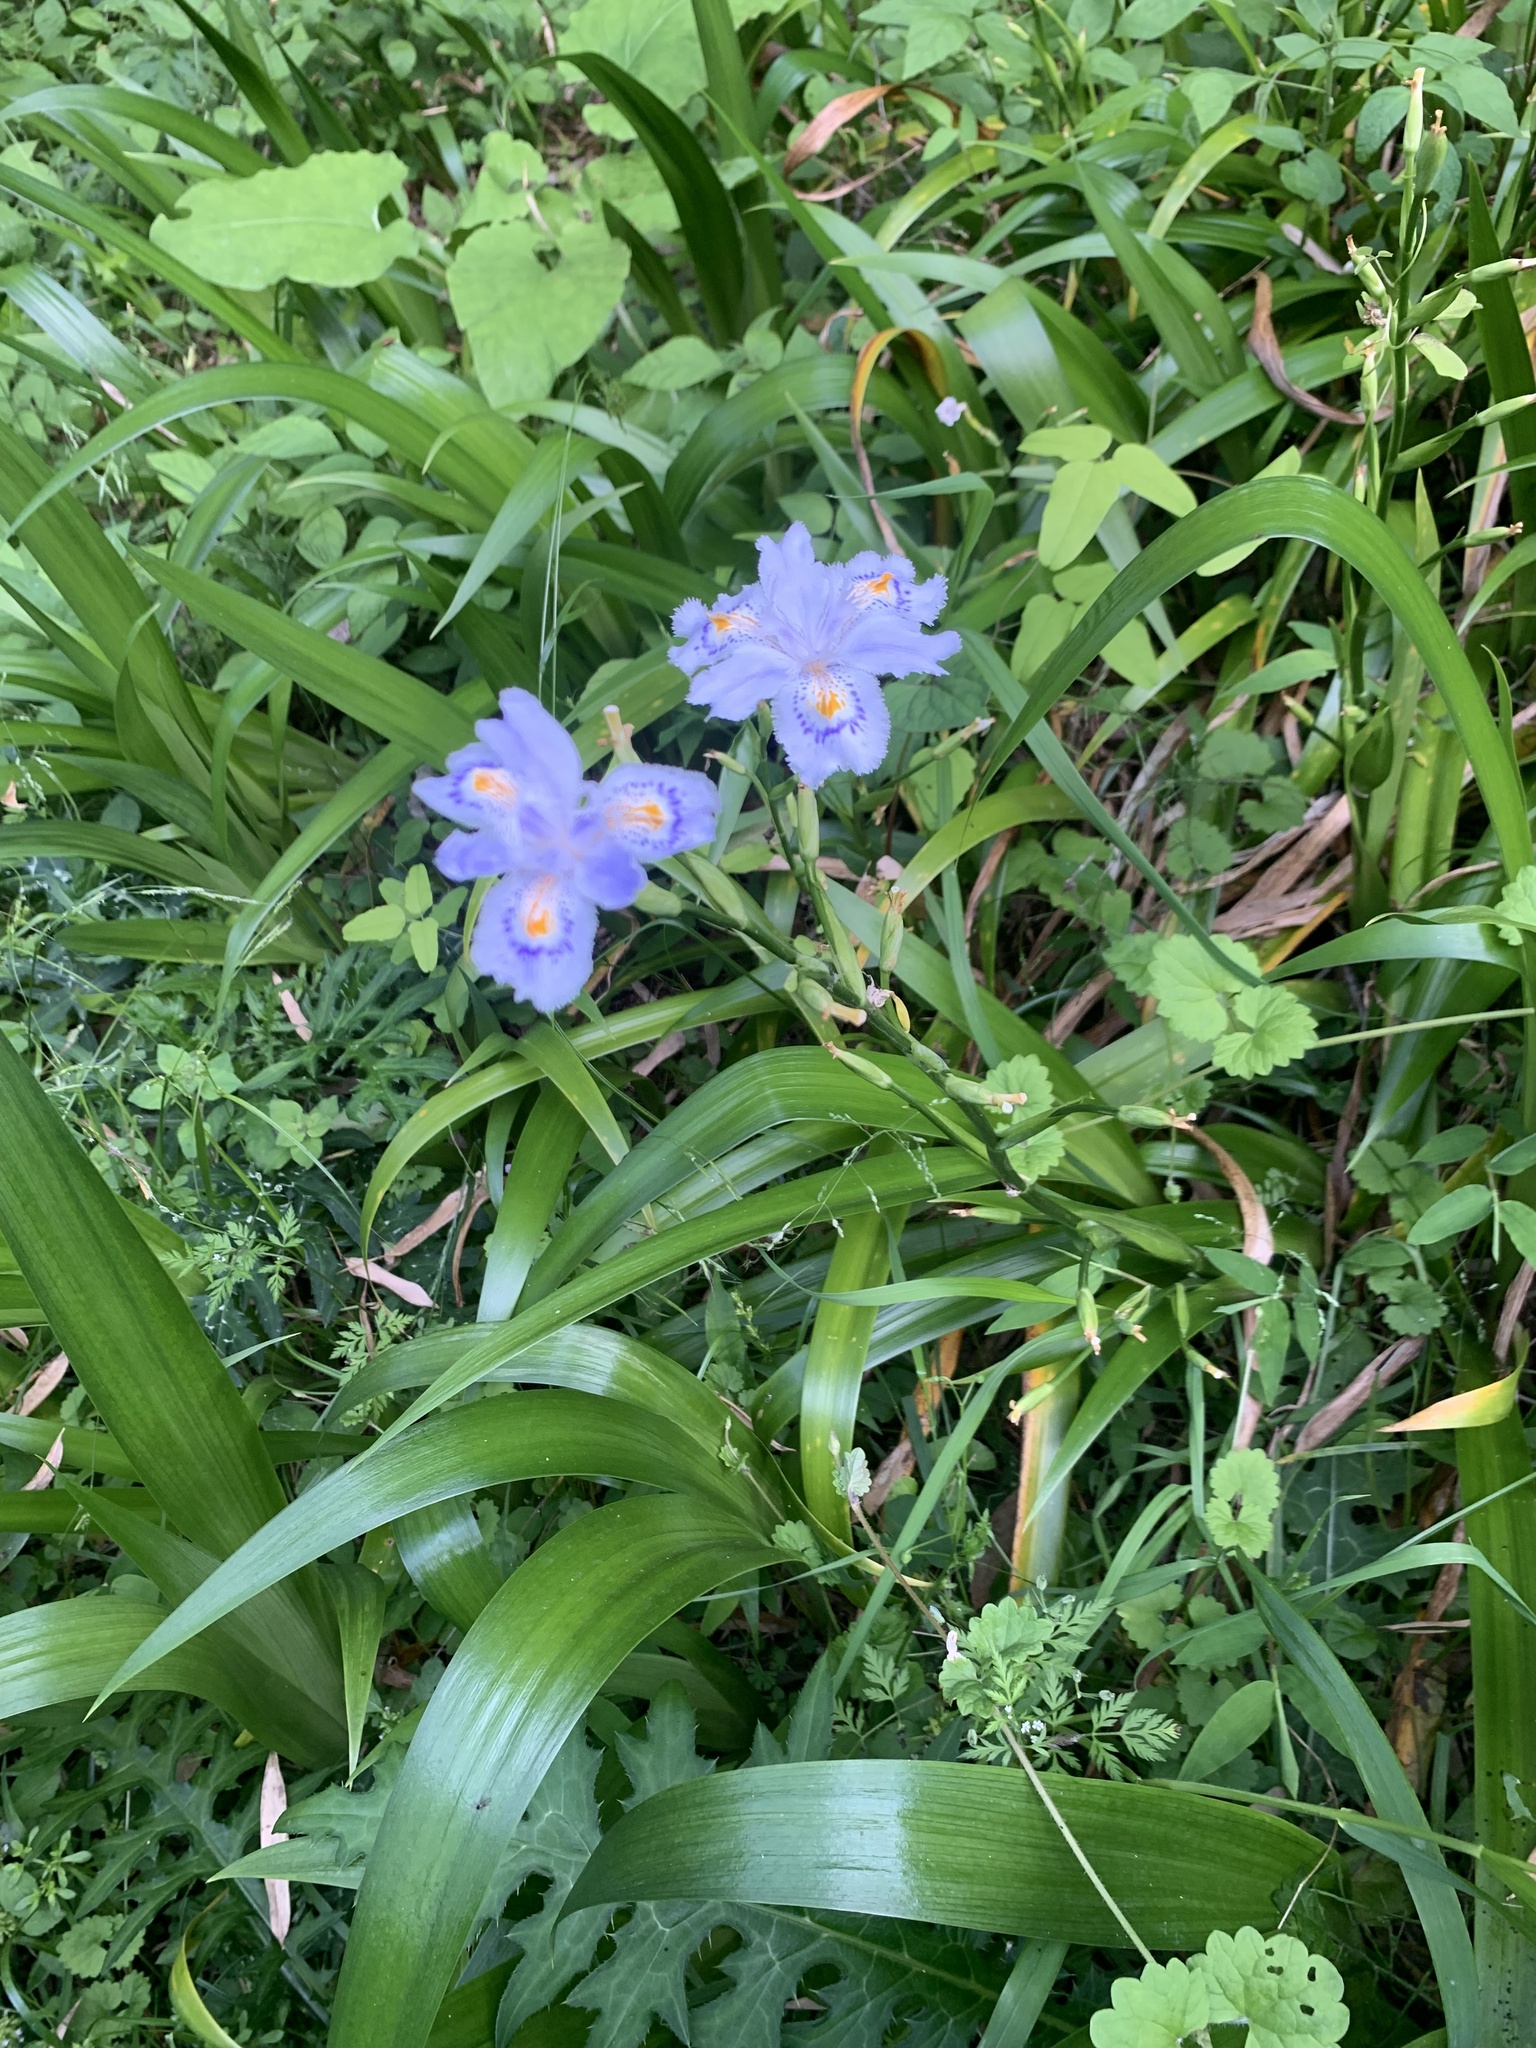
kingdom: Plantae
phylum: Tracheophyta
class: Liliopsida
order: Asparagales
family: Iridaceae
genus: Iris
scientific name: Iris japonica
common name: Butterfly-flower
